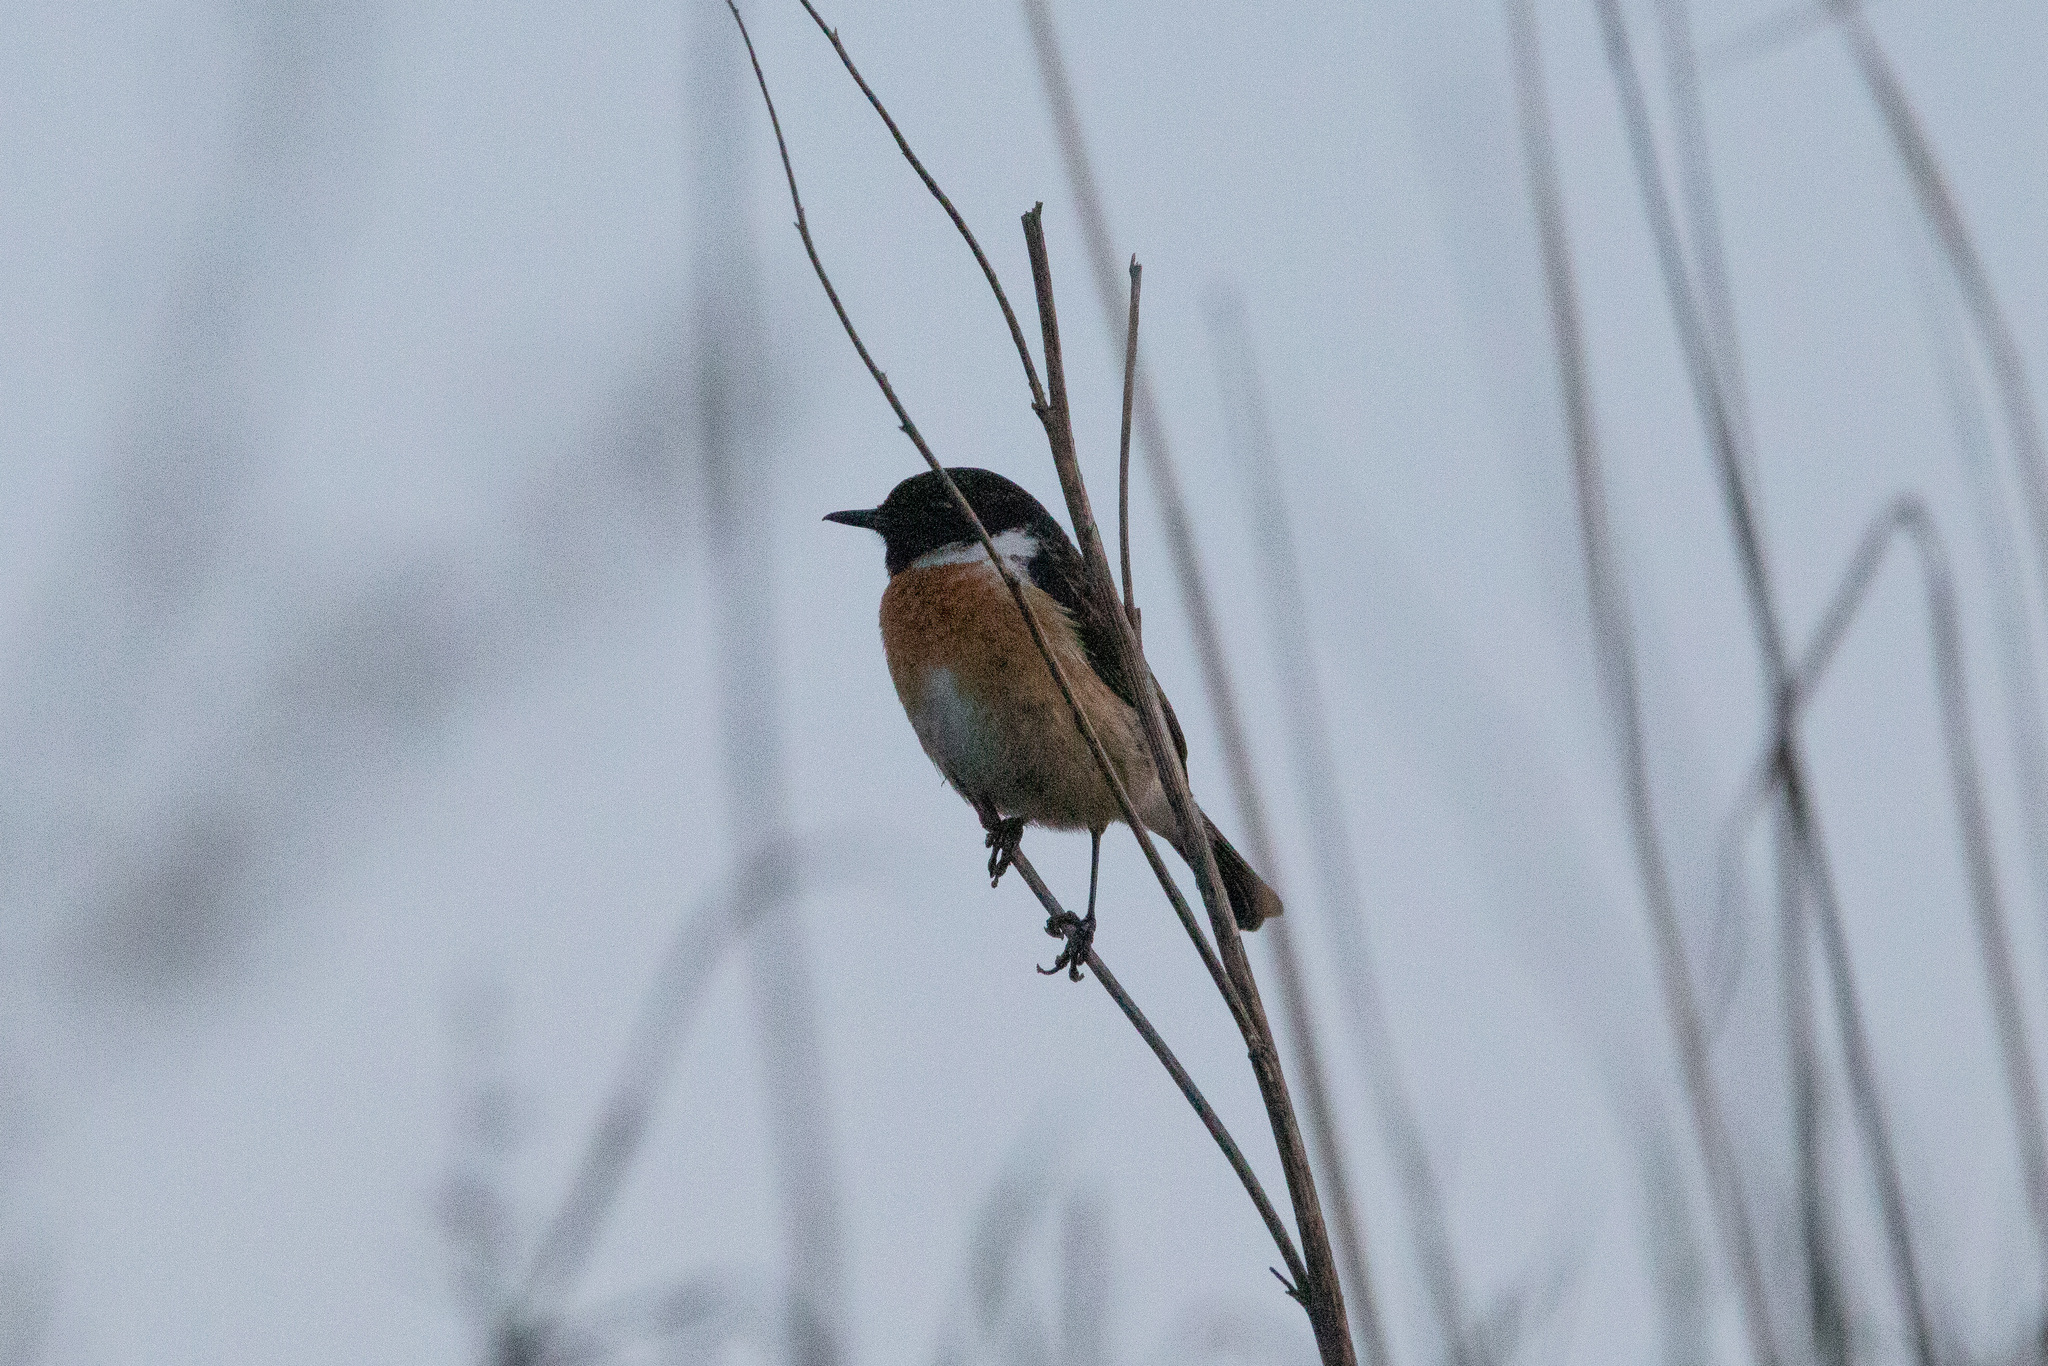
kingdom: Animalia
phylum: Chordata
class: Aves
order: Passeriformes
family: Muscicapidae
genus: Saxicola
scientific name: Saxicola rubicola
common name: European stonechat
